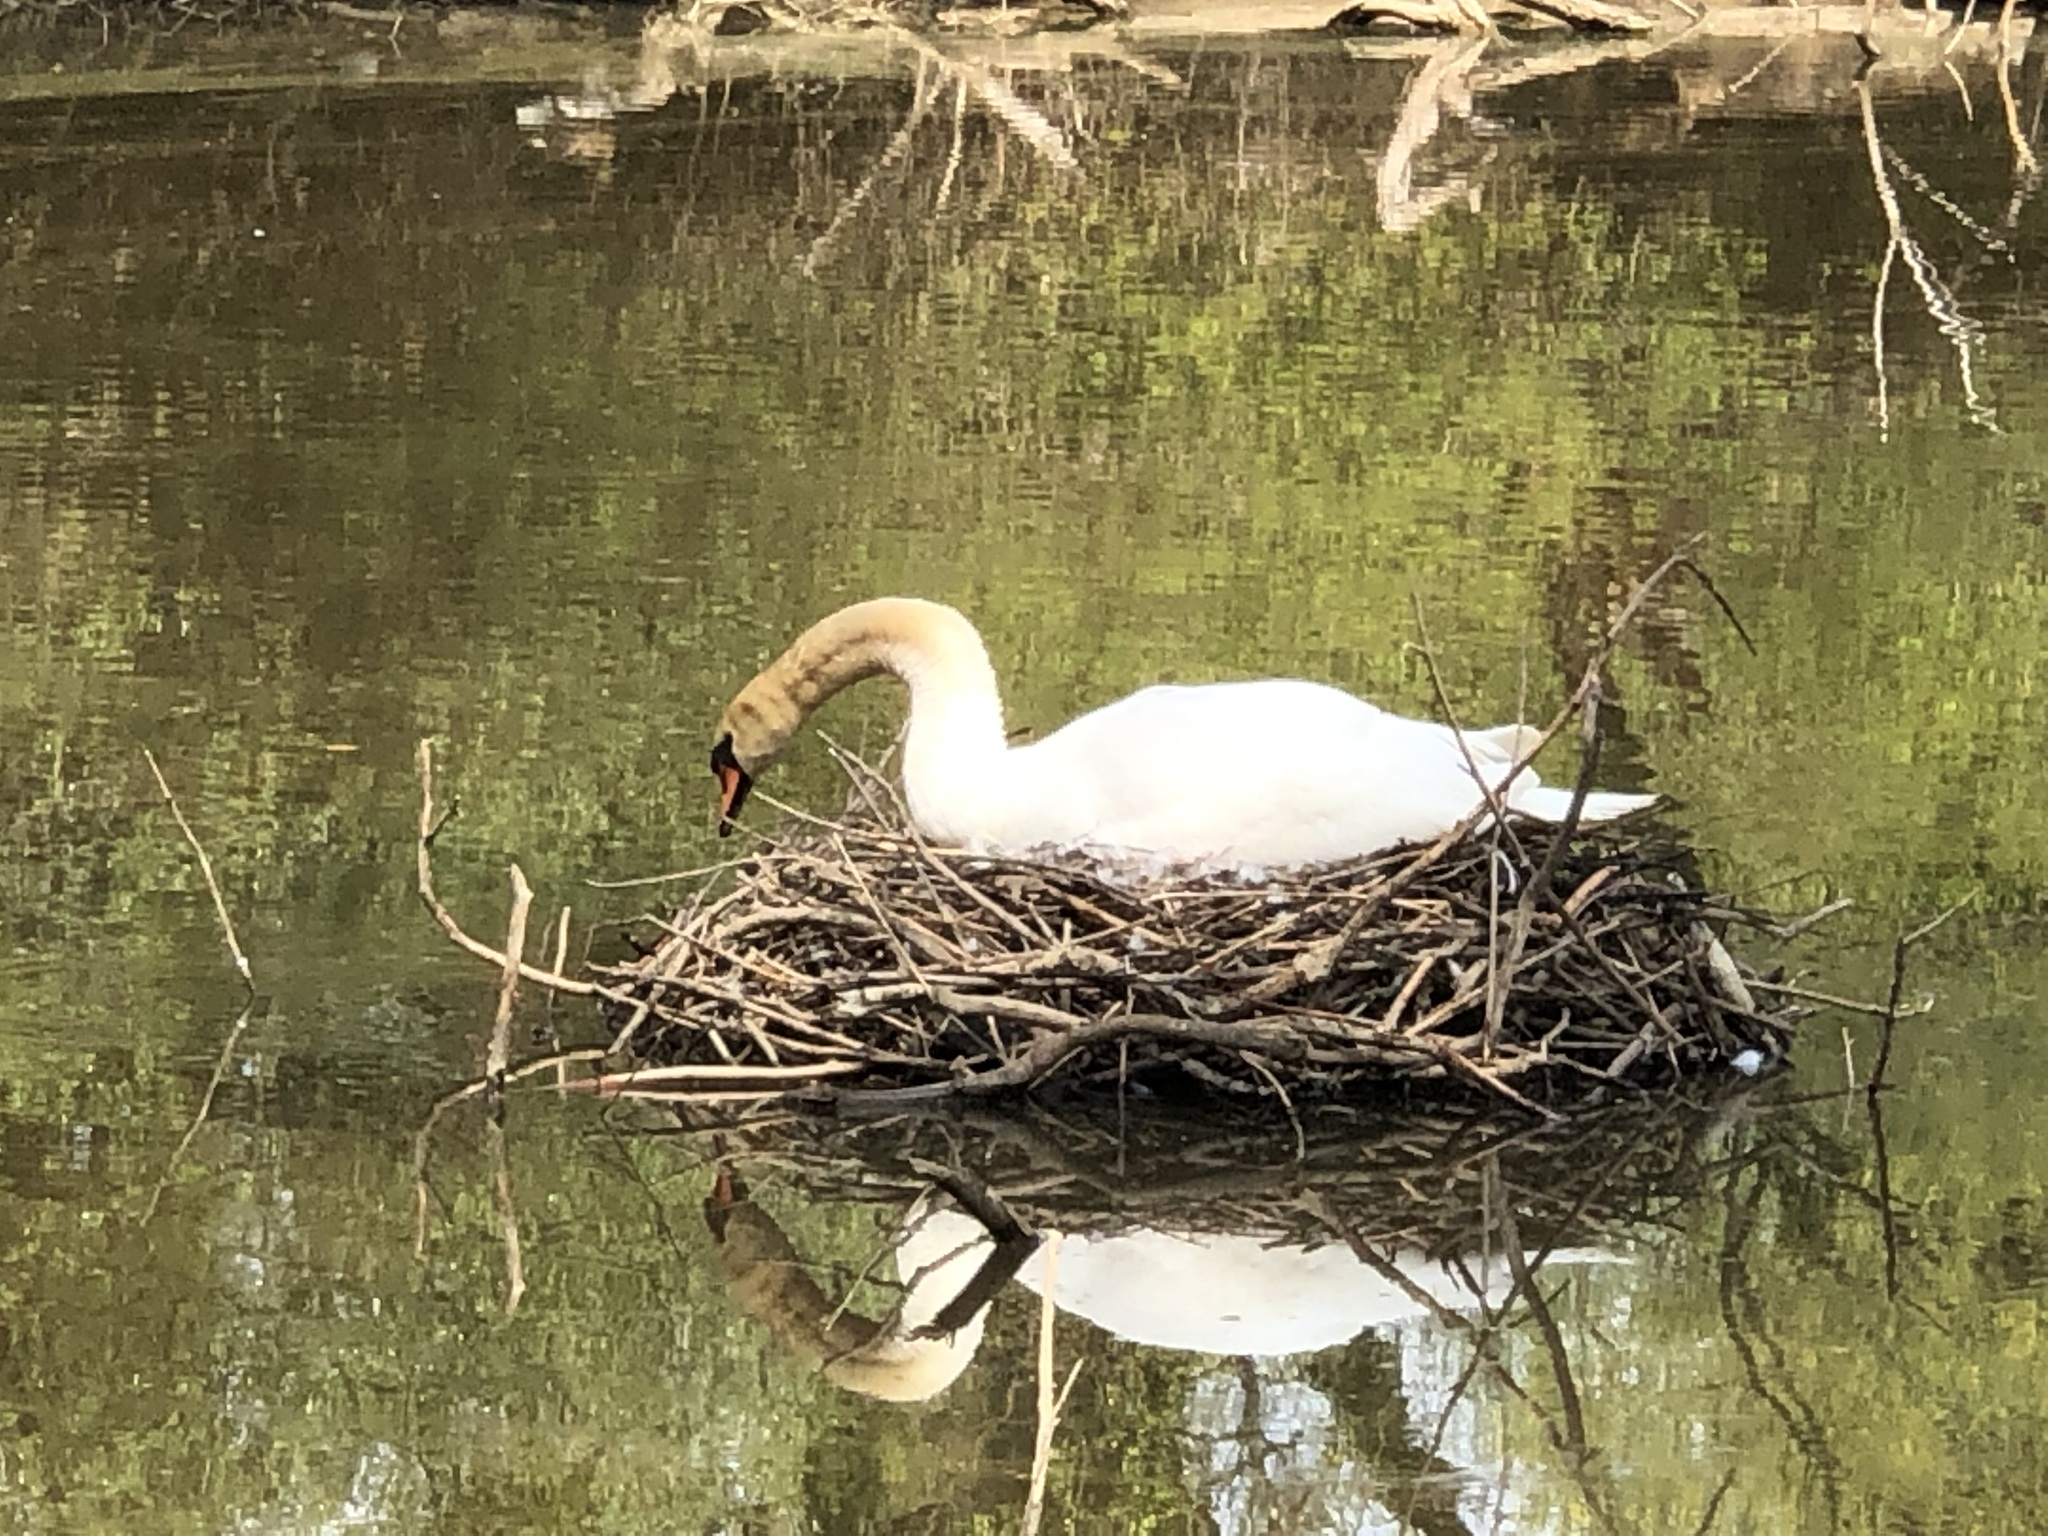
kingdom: Animalia
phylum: Chordata
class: Aves
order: Anseriformes
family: Anatidae
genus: Cygnus
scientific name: Cygnus olor
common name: Mute swan
